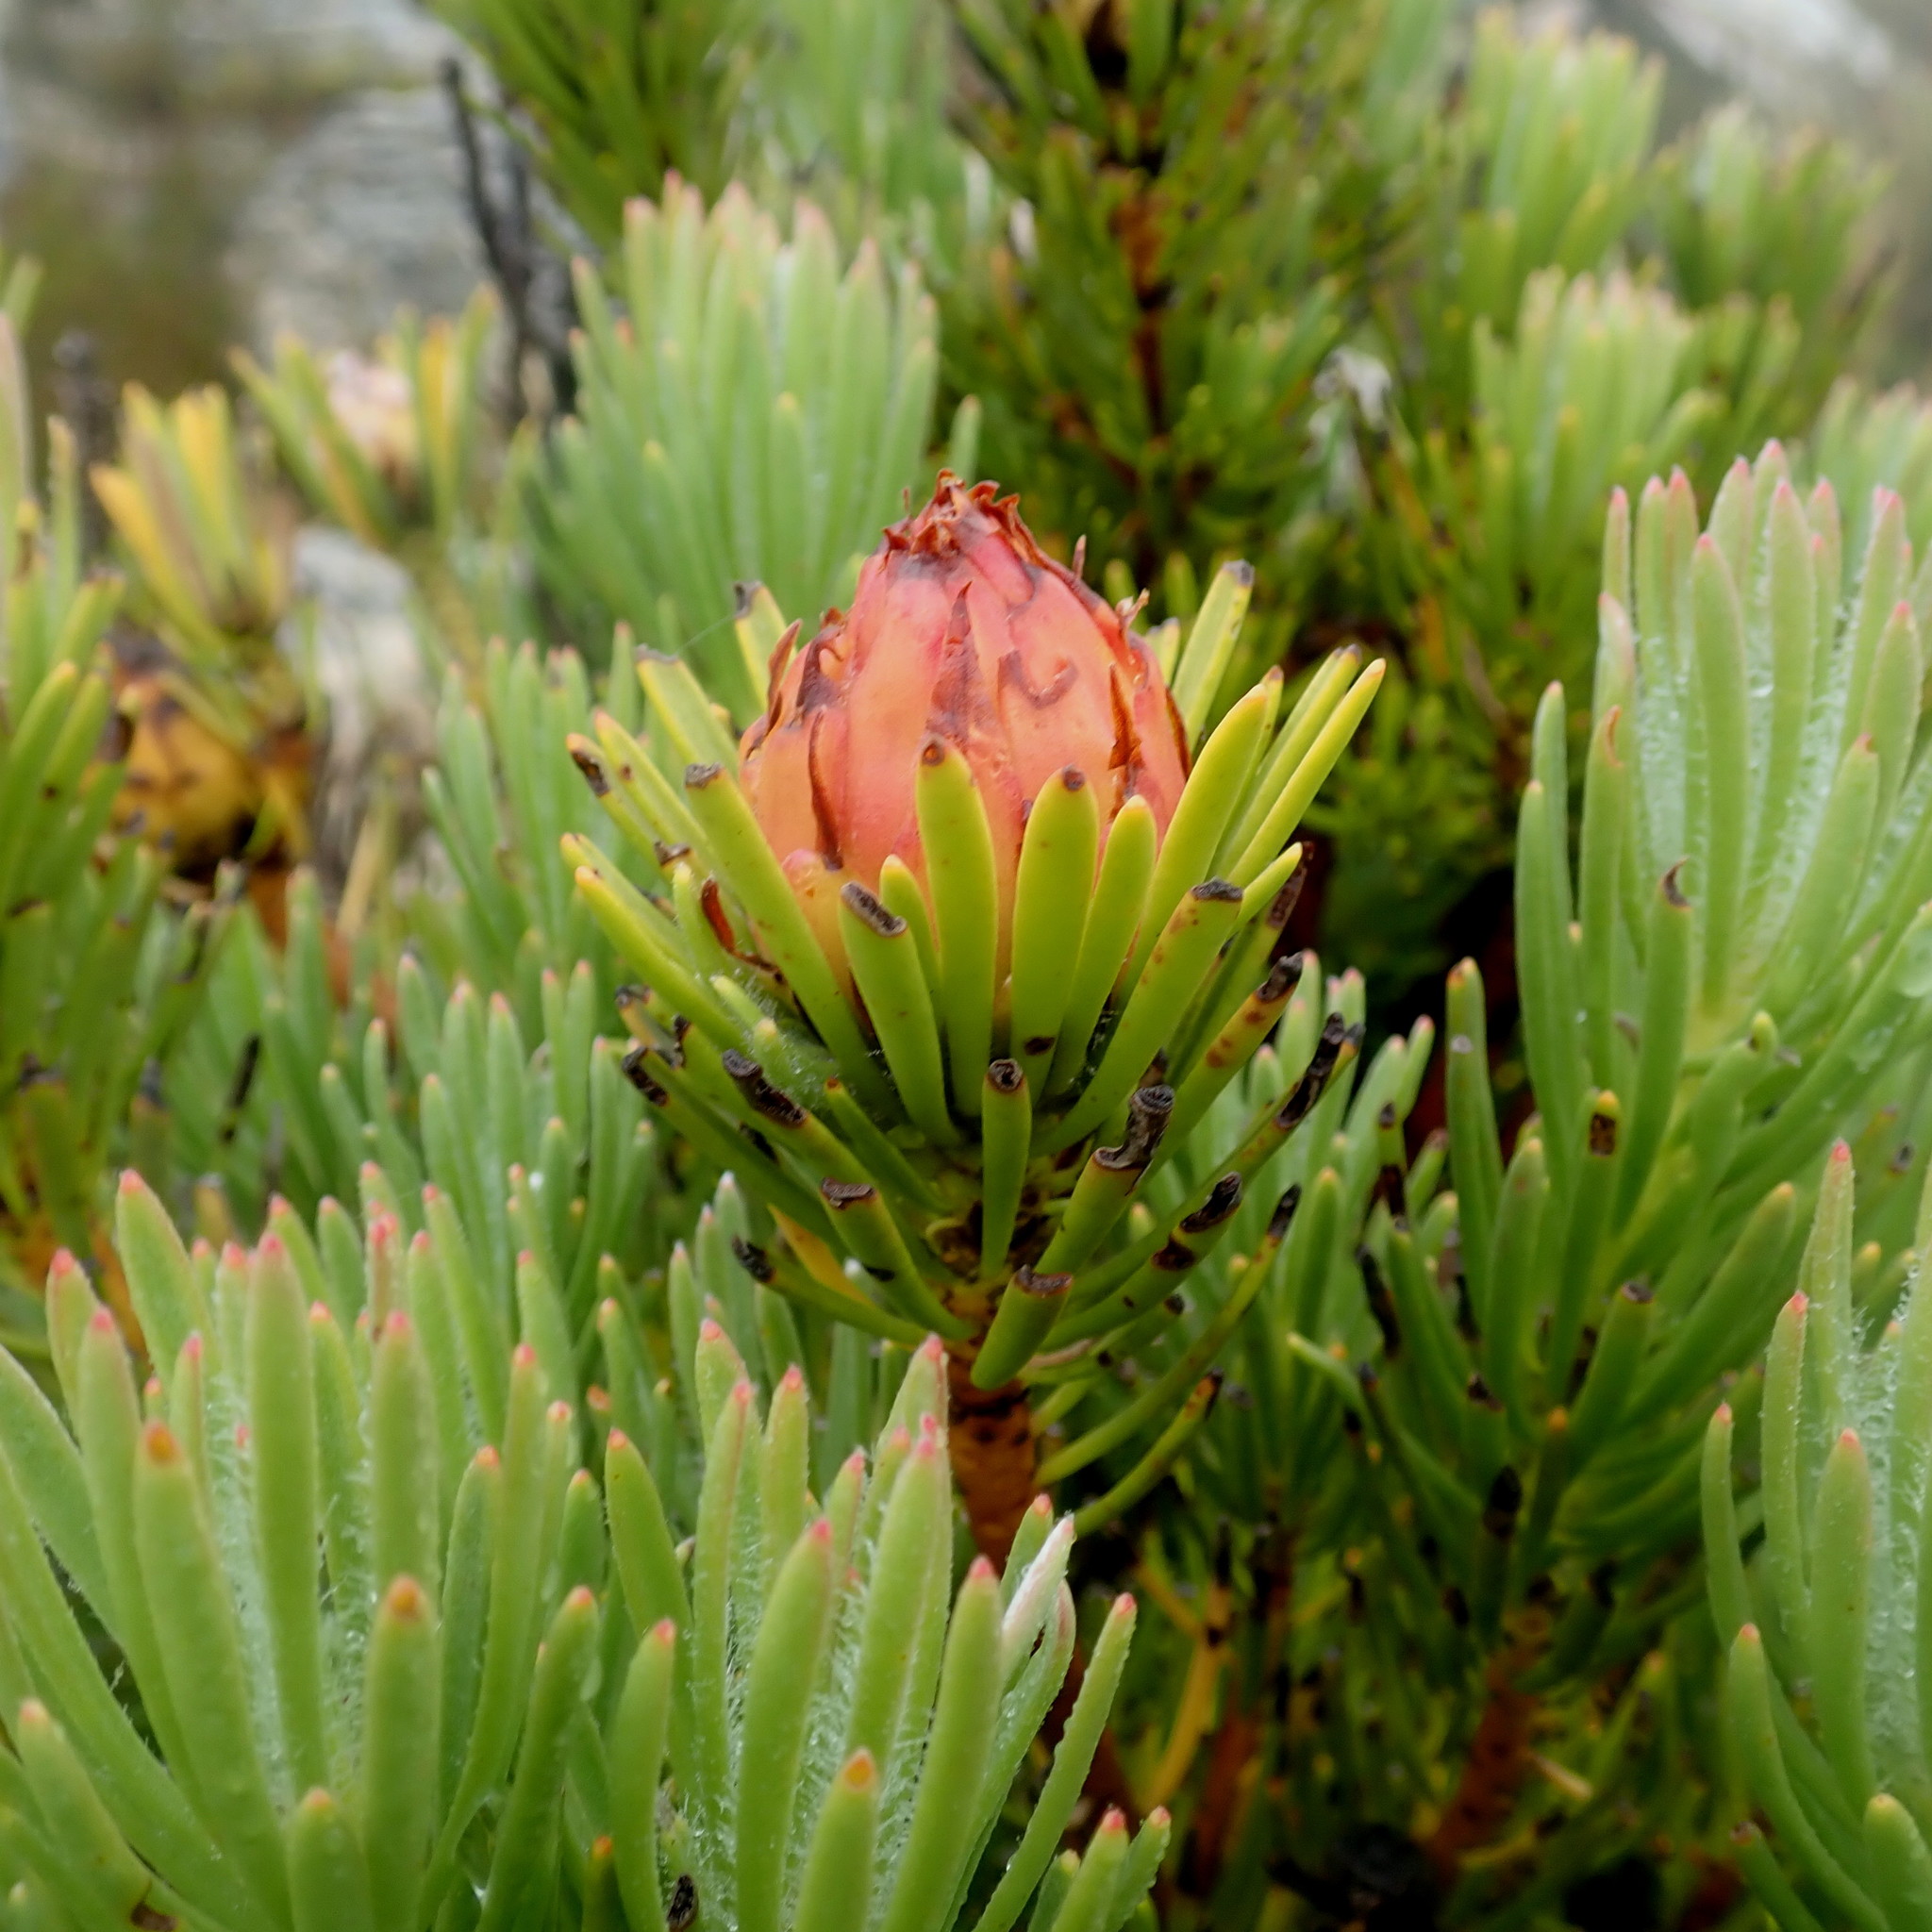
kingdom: Plantae
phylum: Tracheophyta
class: Magnoliopsida
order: Proteales
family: Proteaceae
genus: Leucadendron
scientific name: Leucadendron dregei
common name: Summit conebush
